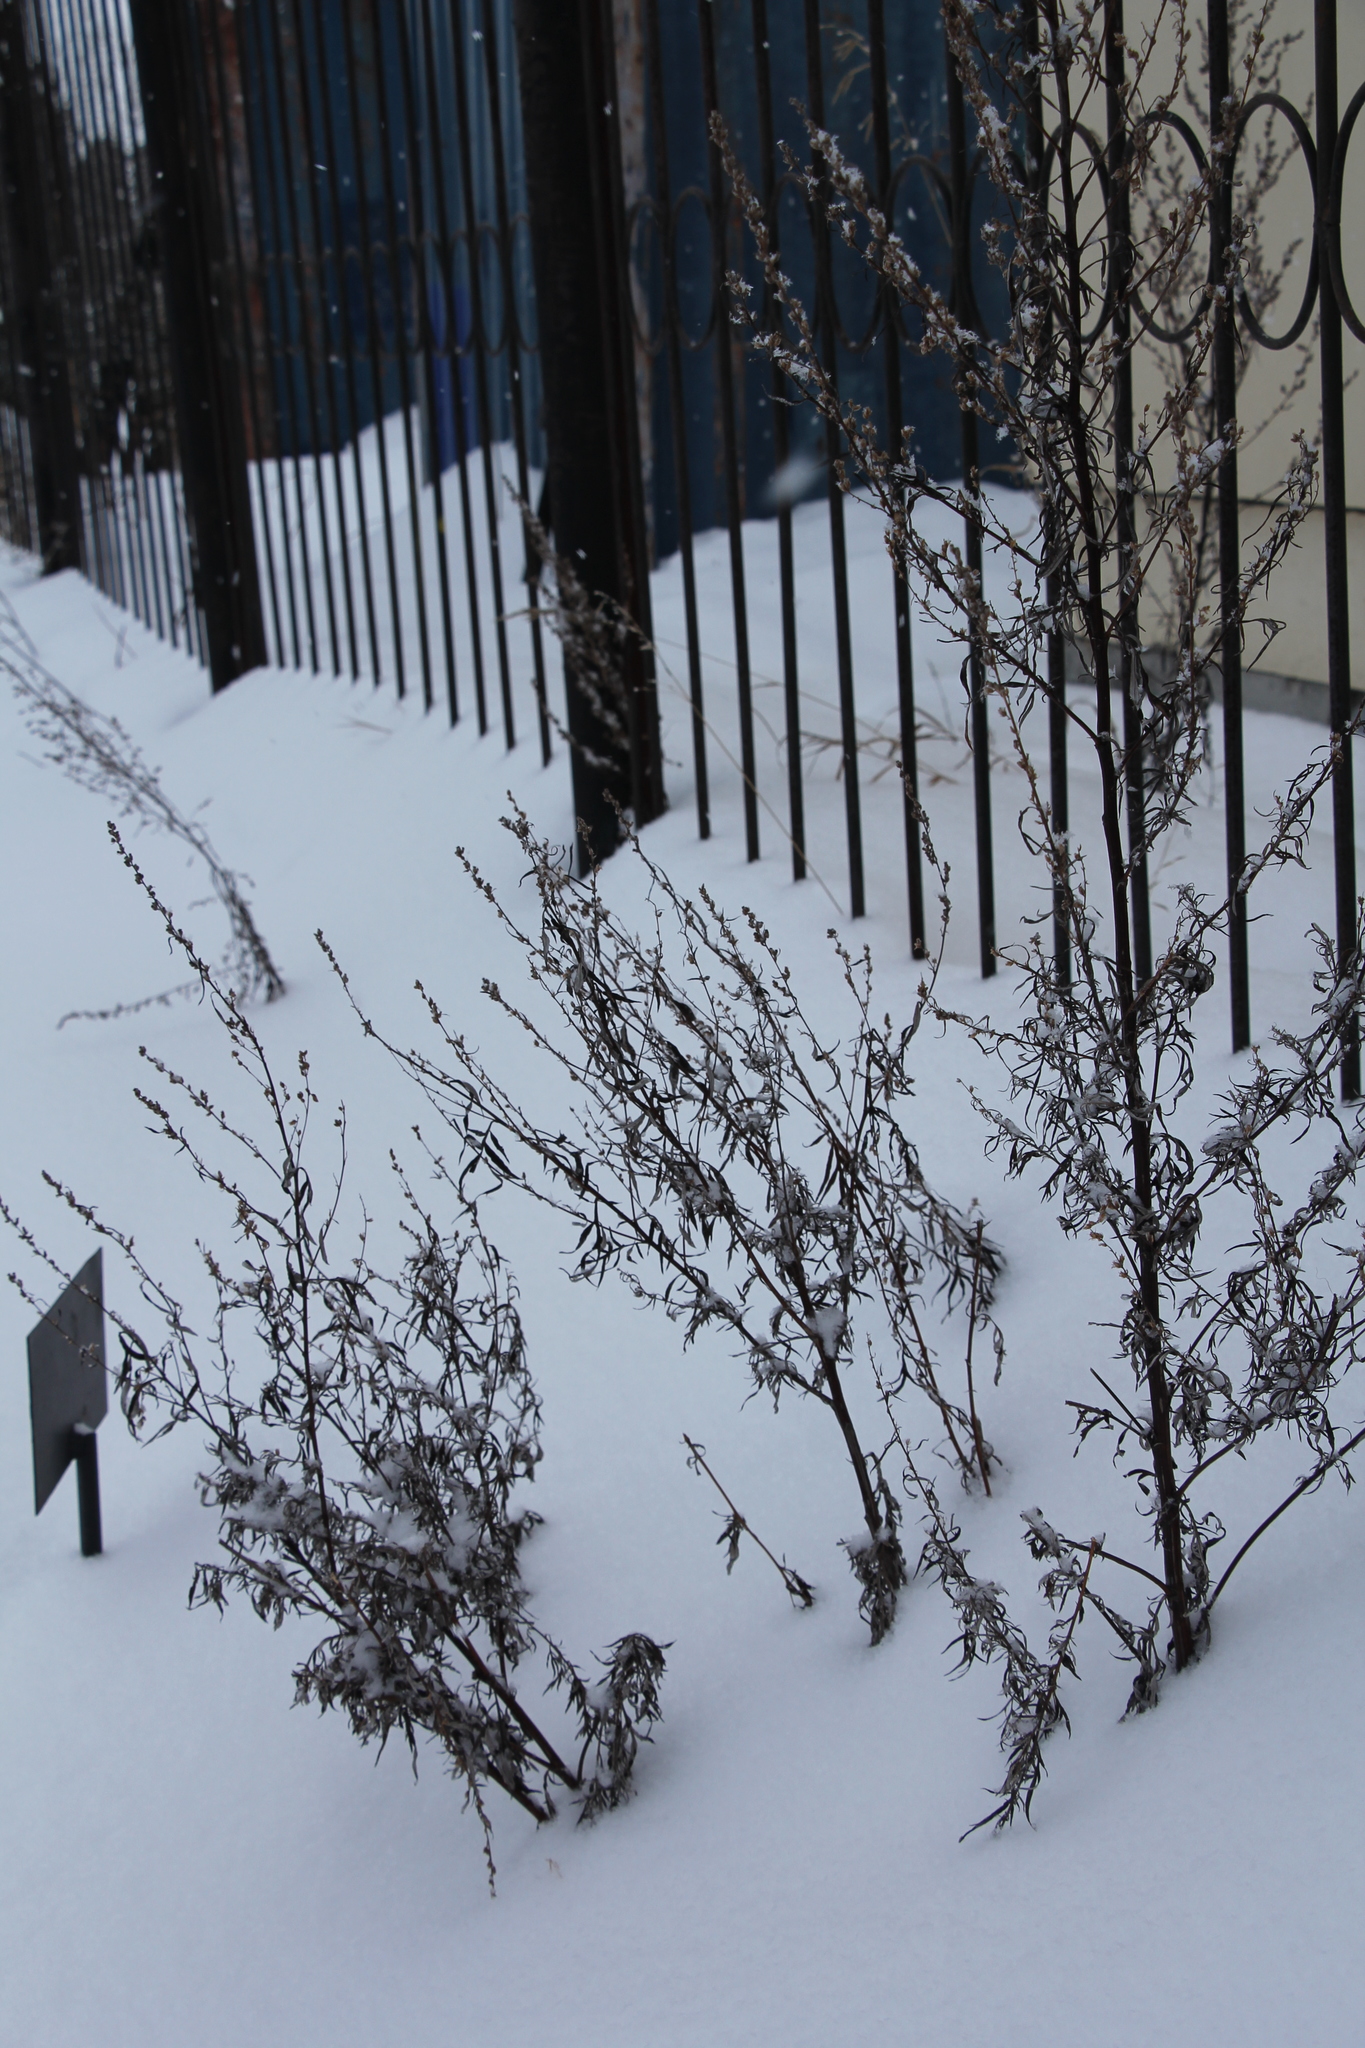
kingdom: Plantae
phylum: Tracheophyta
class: Magnoliopsida
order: Asterales
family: Asteraceae
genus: Artemisia
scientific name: Artemisia vulgaris
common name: Mugwort
